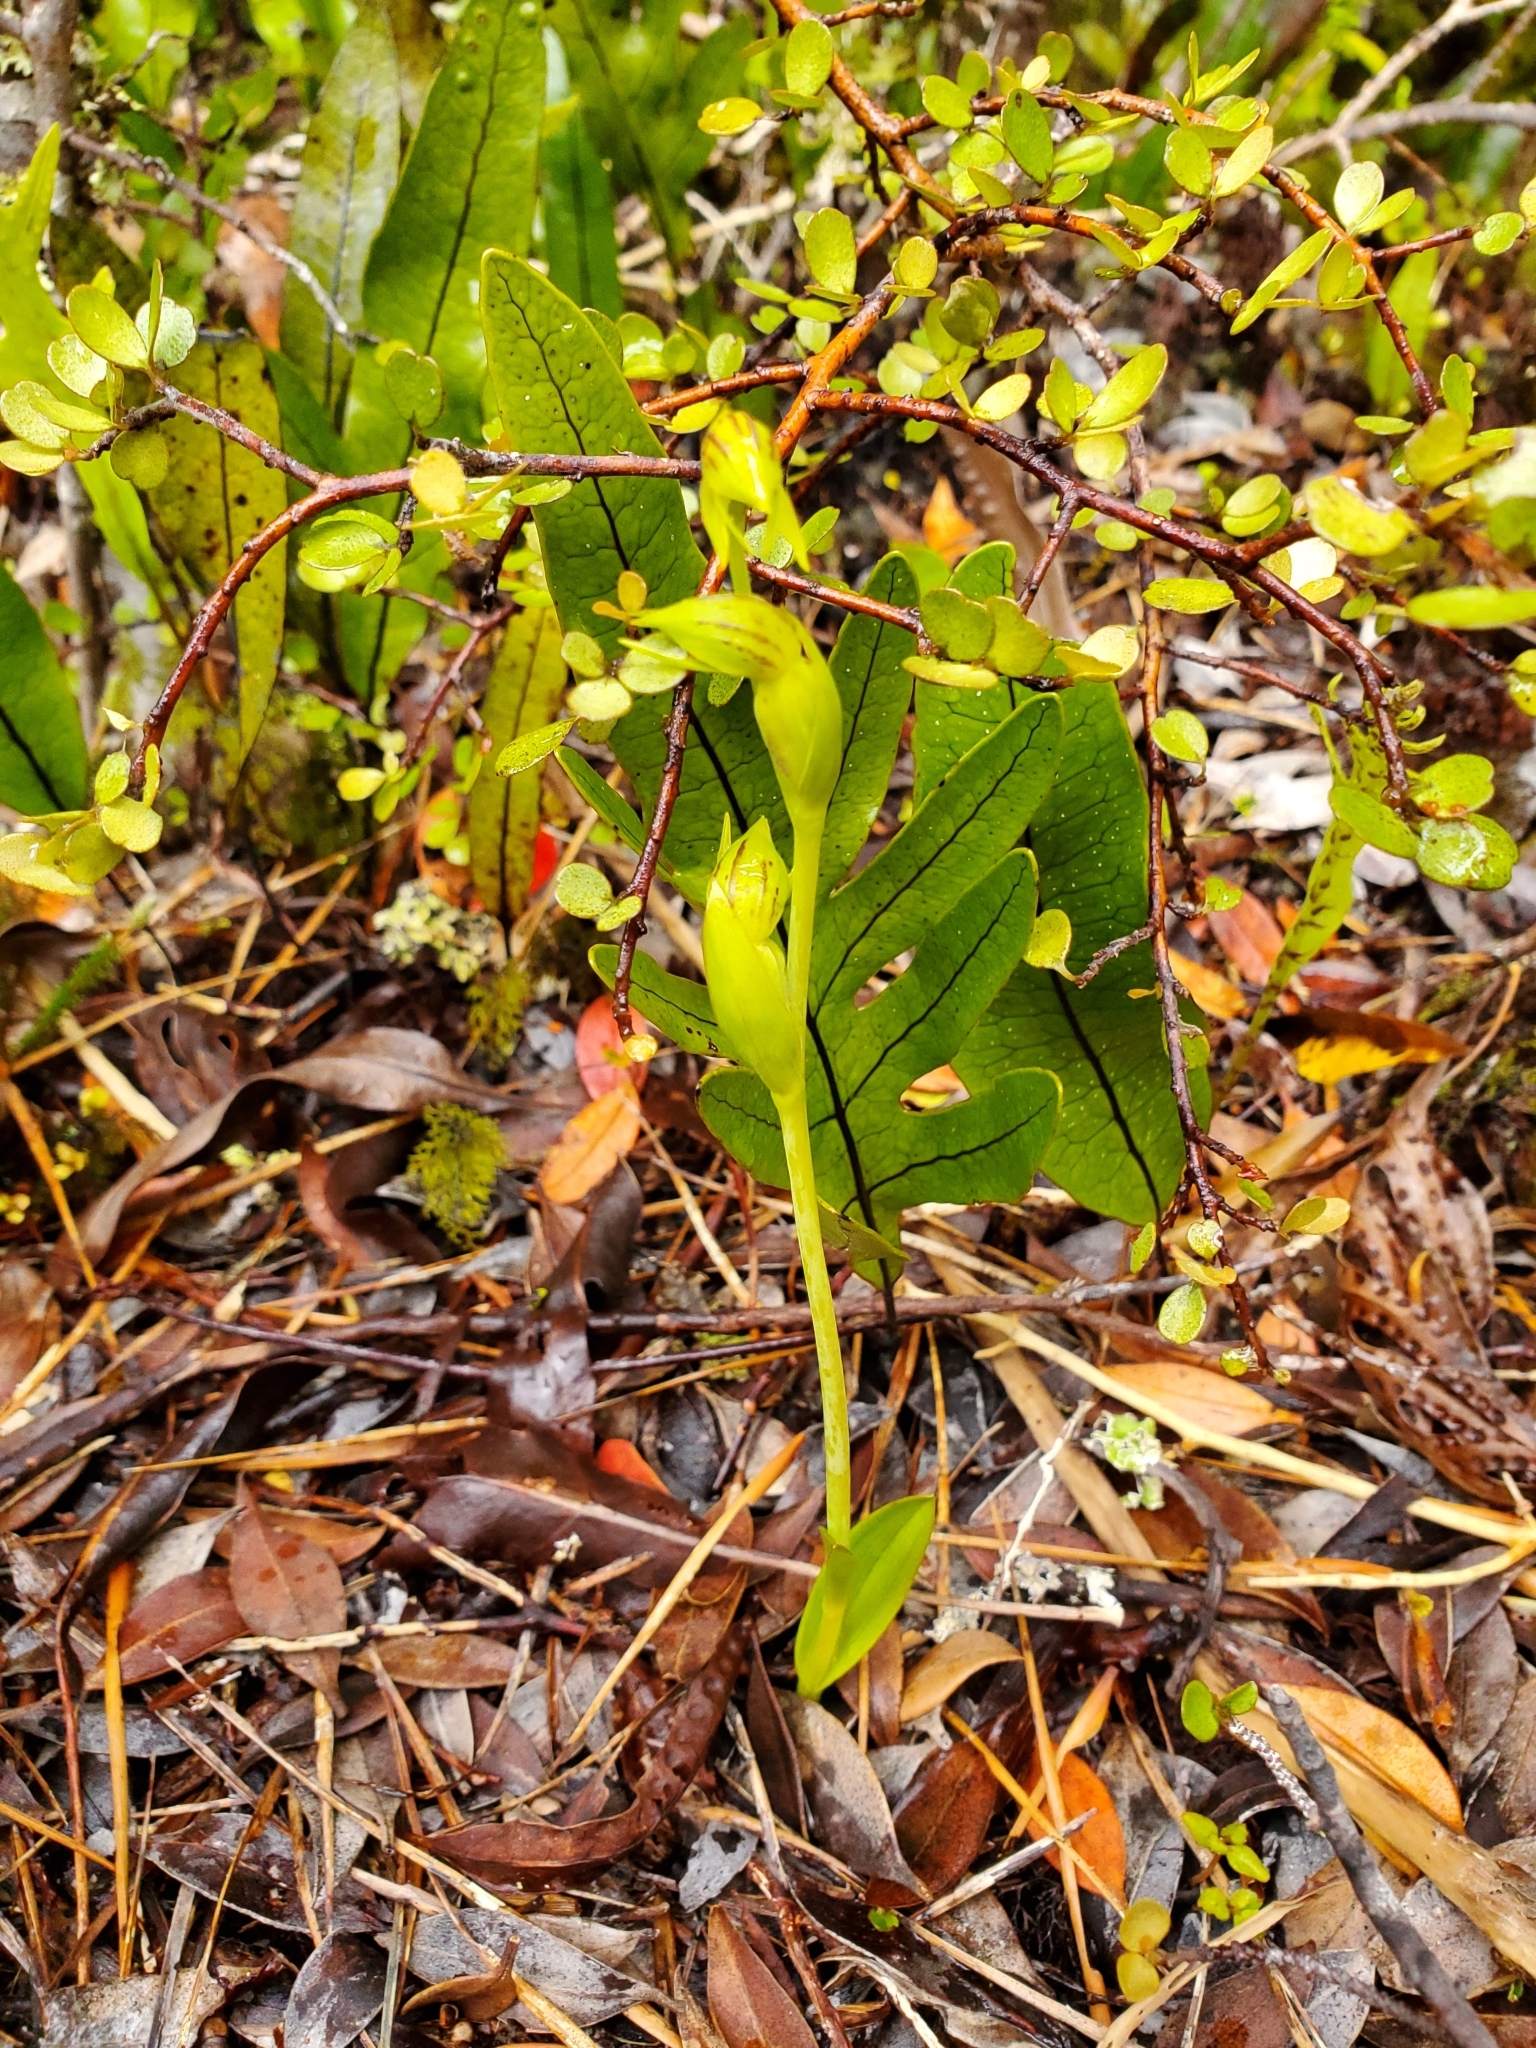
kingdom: Plantae
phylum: Tracheophyta
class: Liliopsida
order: Asparagales
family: Orchidaceae
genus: Waireia
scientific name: Waireia stenopetala
